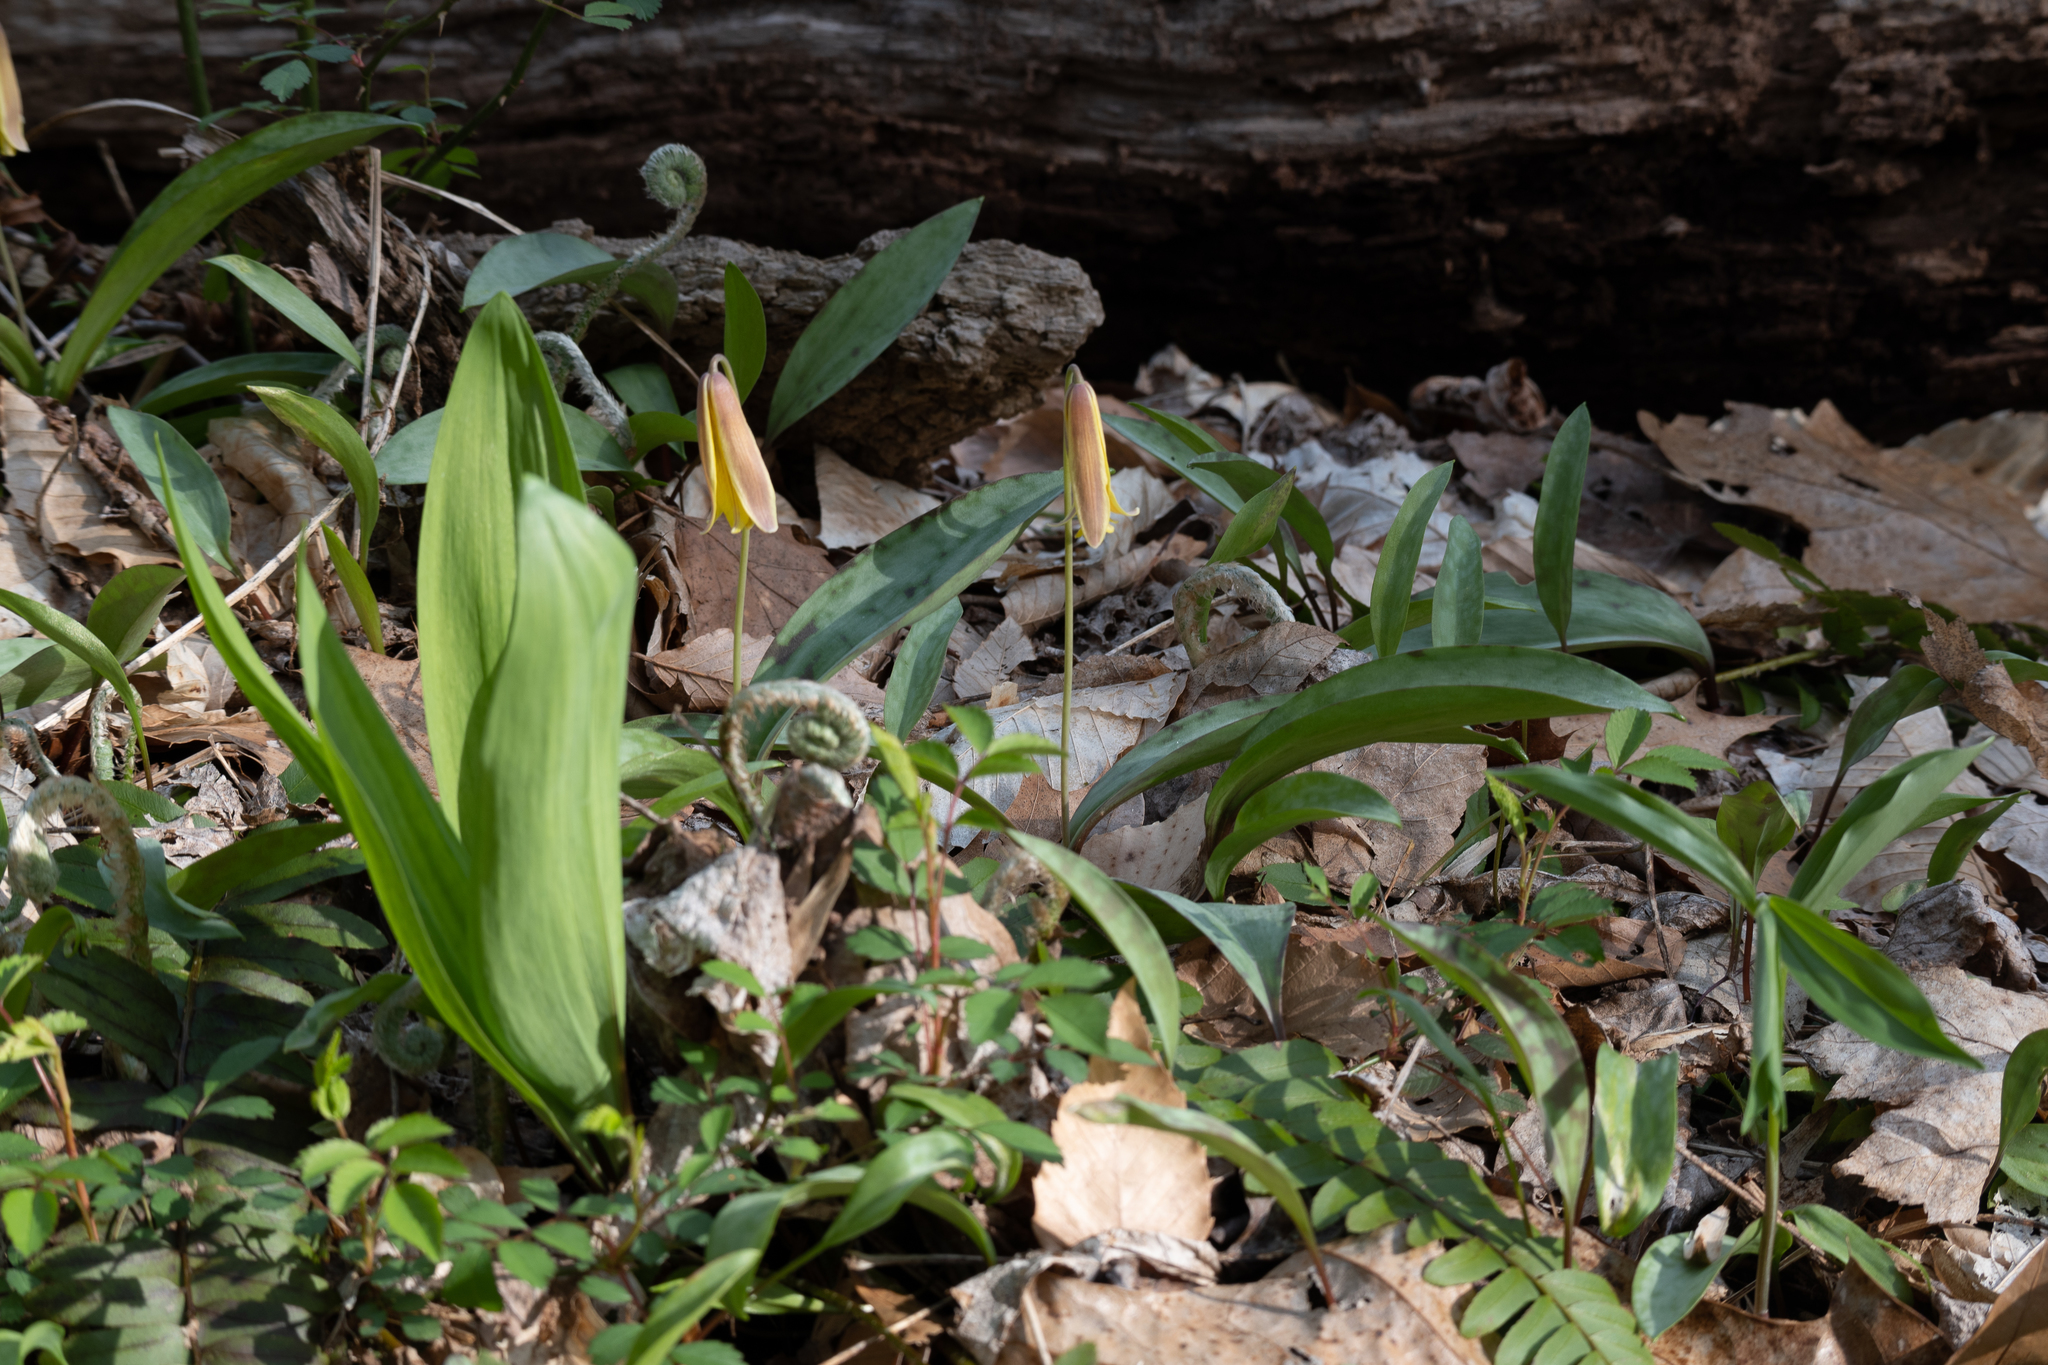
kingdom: Plantae
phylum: Tracheophyta
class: Liliopsida
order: Liliales
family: Liliaceae
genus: Erythronium
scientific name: Erythronium americanum
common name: Yellow adder's-tongue
